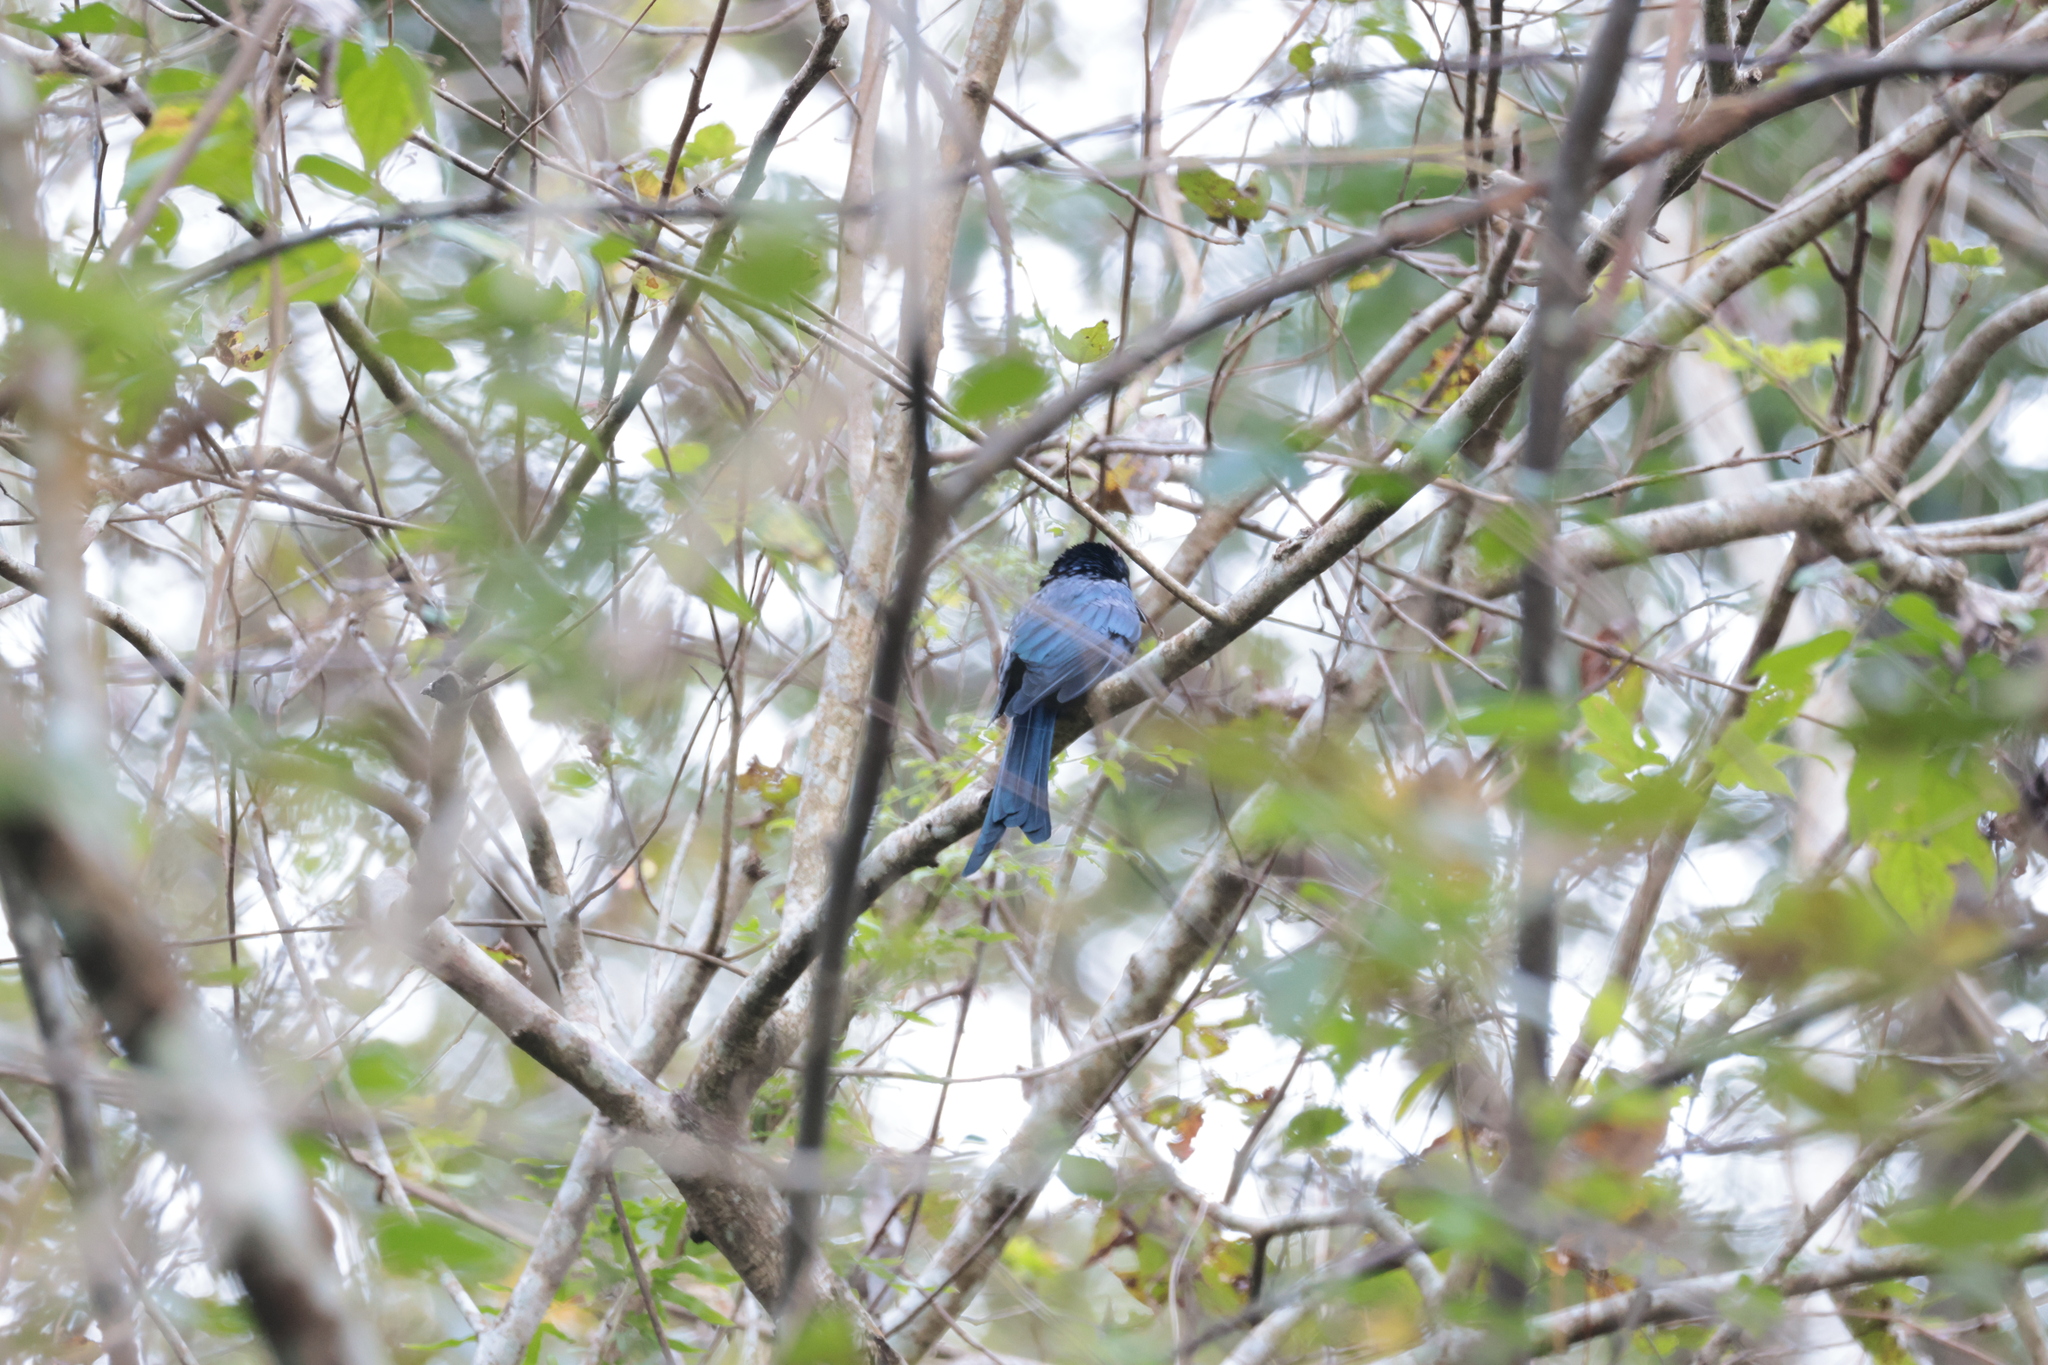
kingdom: Animalia
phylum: Chordata
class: Aves
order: Passeriformes
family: Dicruridae
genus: Dicrurus
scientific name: Dicrurus aeneus
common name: Bronzed drongo
